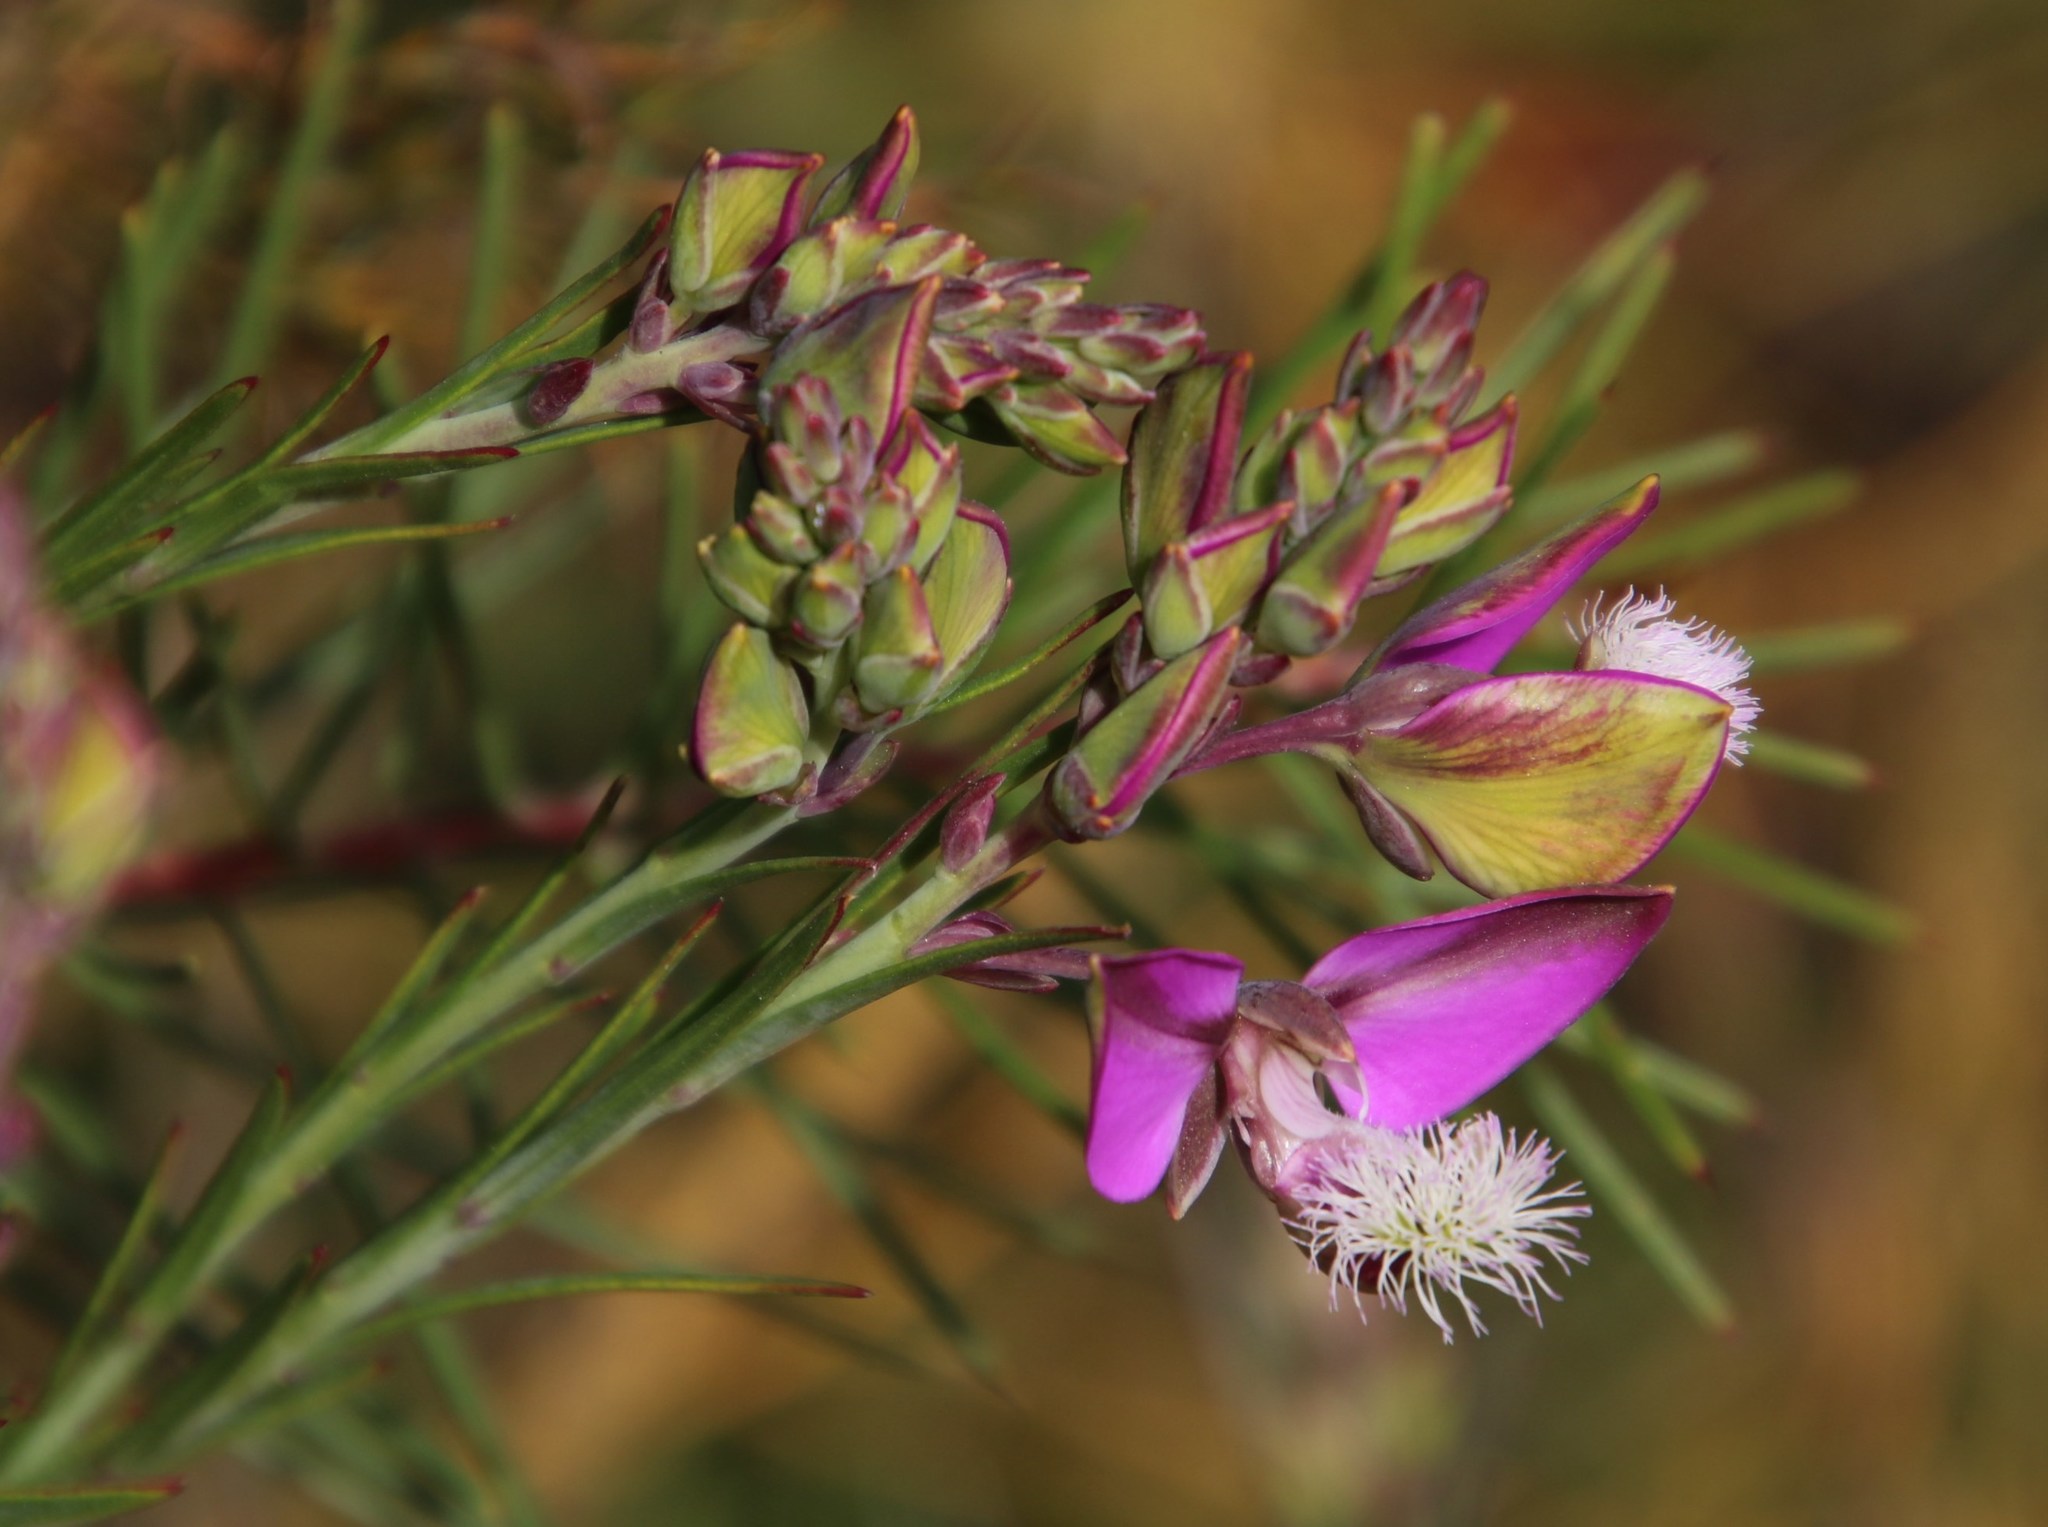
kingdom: Plantae
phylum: Tracheophyta
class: Magnoliopsida
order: Fabales
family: Polygalaceae
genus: Polygala
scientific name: Polygala bracteolata
